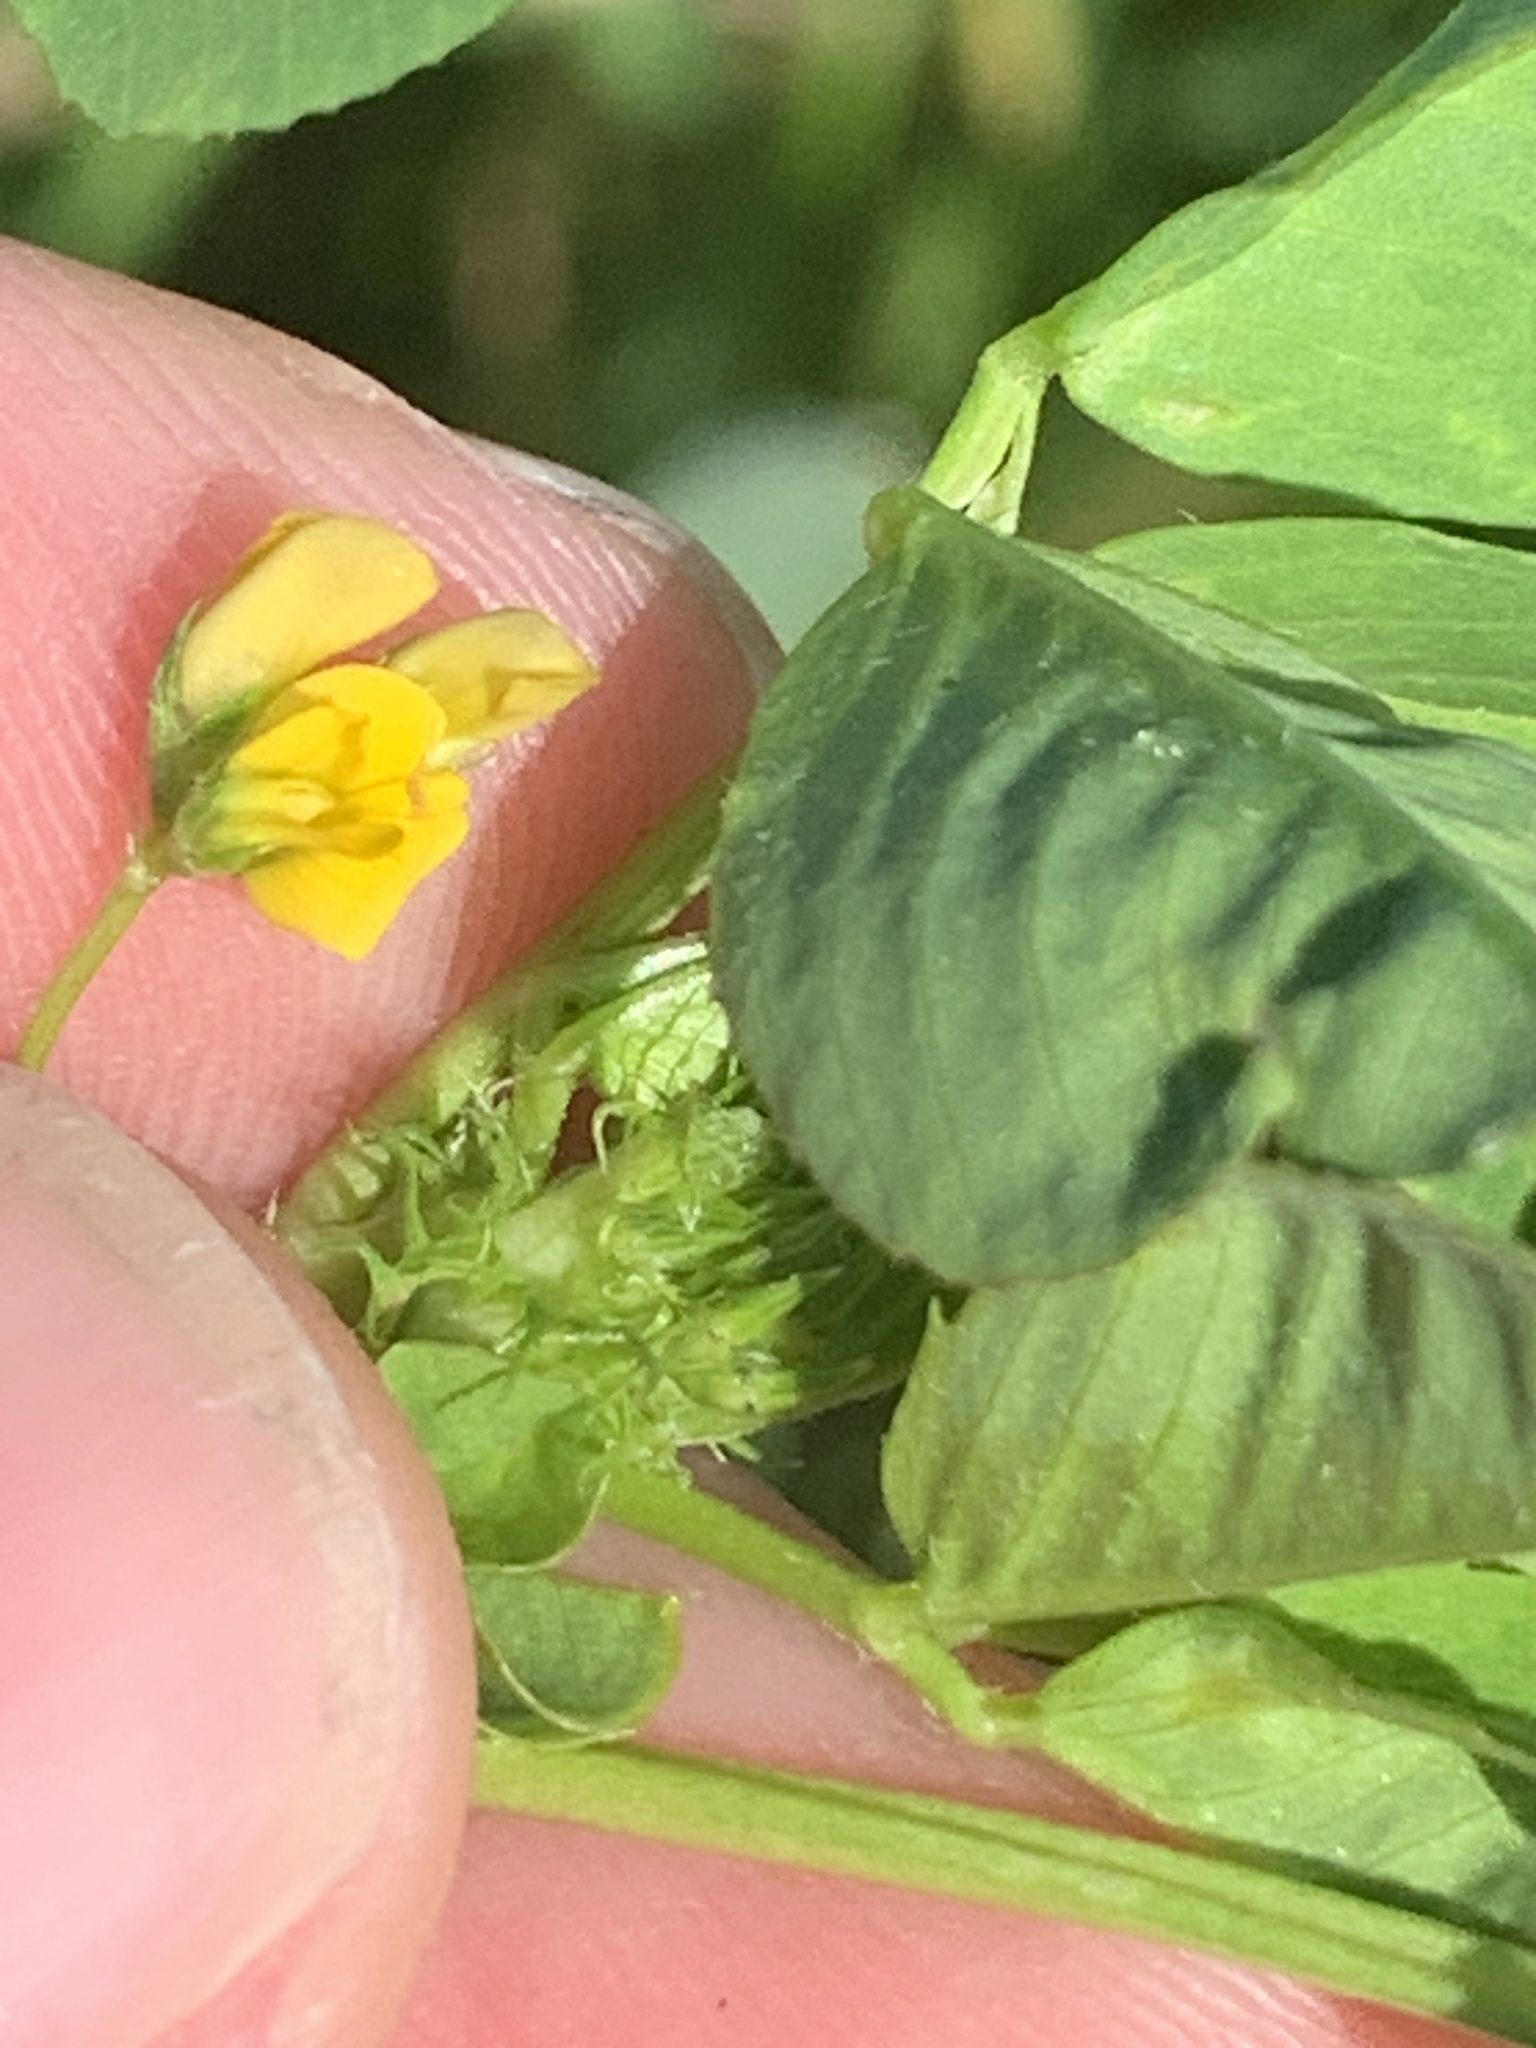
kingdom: Plantae
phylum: Tracheophyta
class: Magnoliopsida
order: Fabales
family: Fabaceae
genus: Medicago
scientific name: Medicago polymorpha
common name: Burclover
